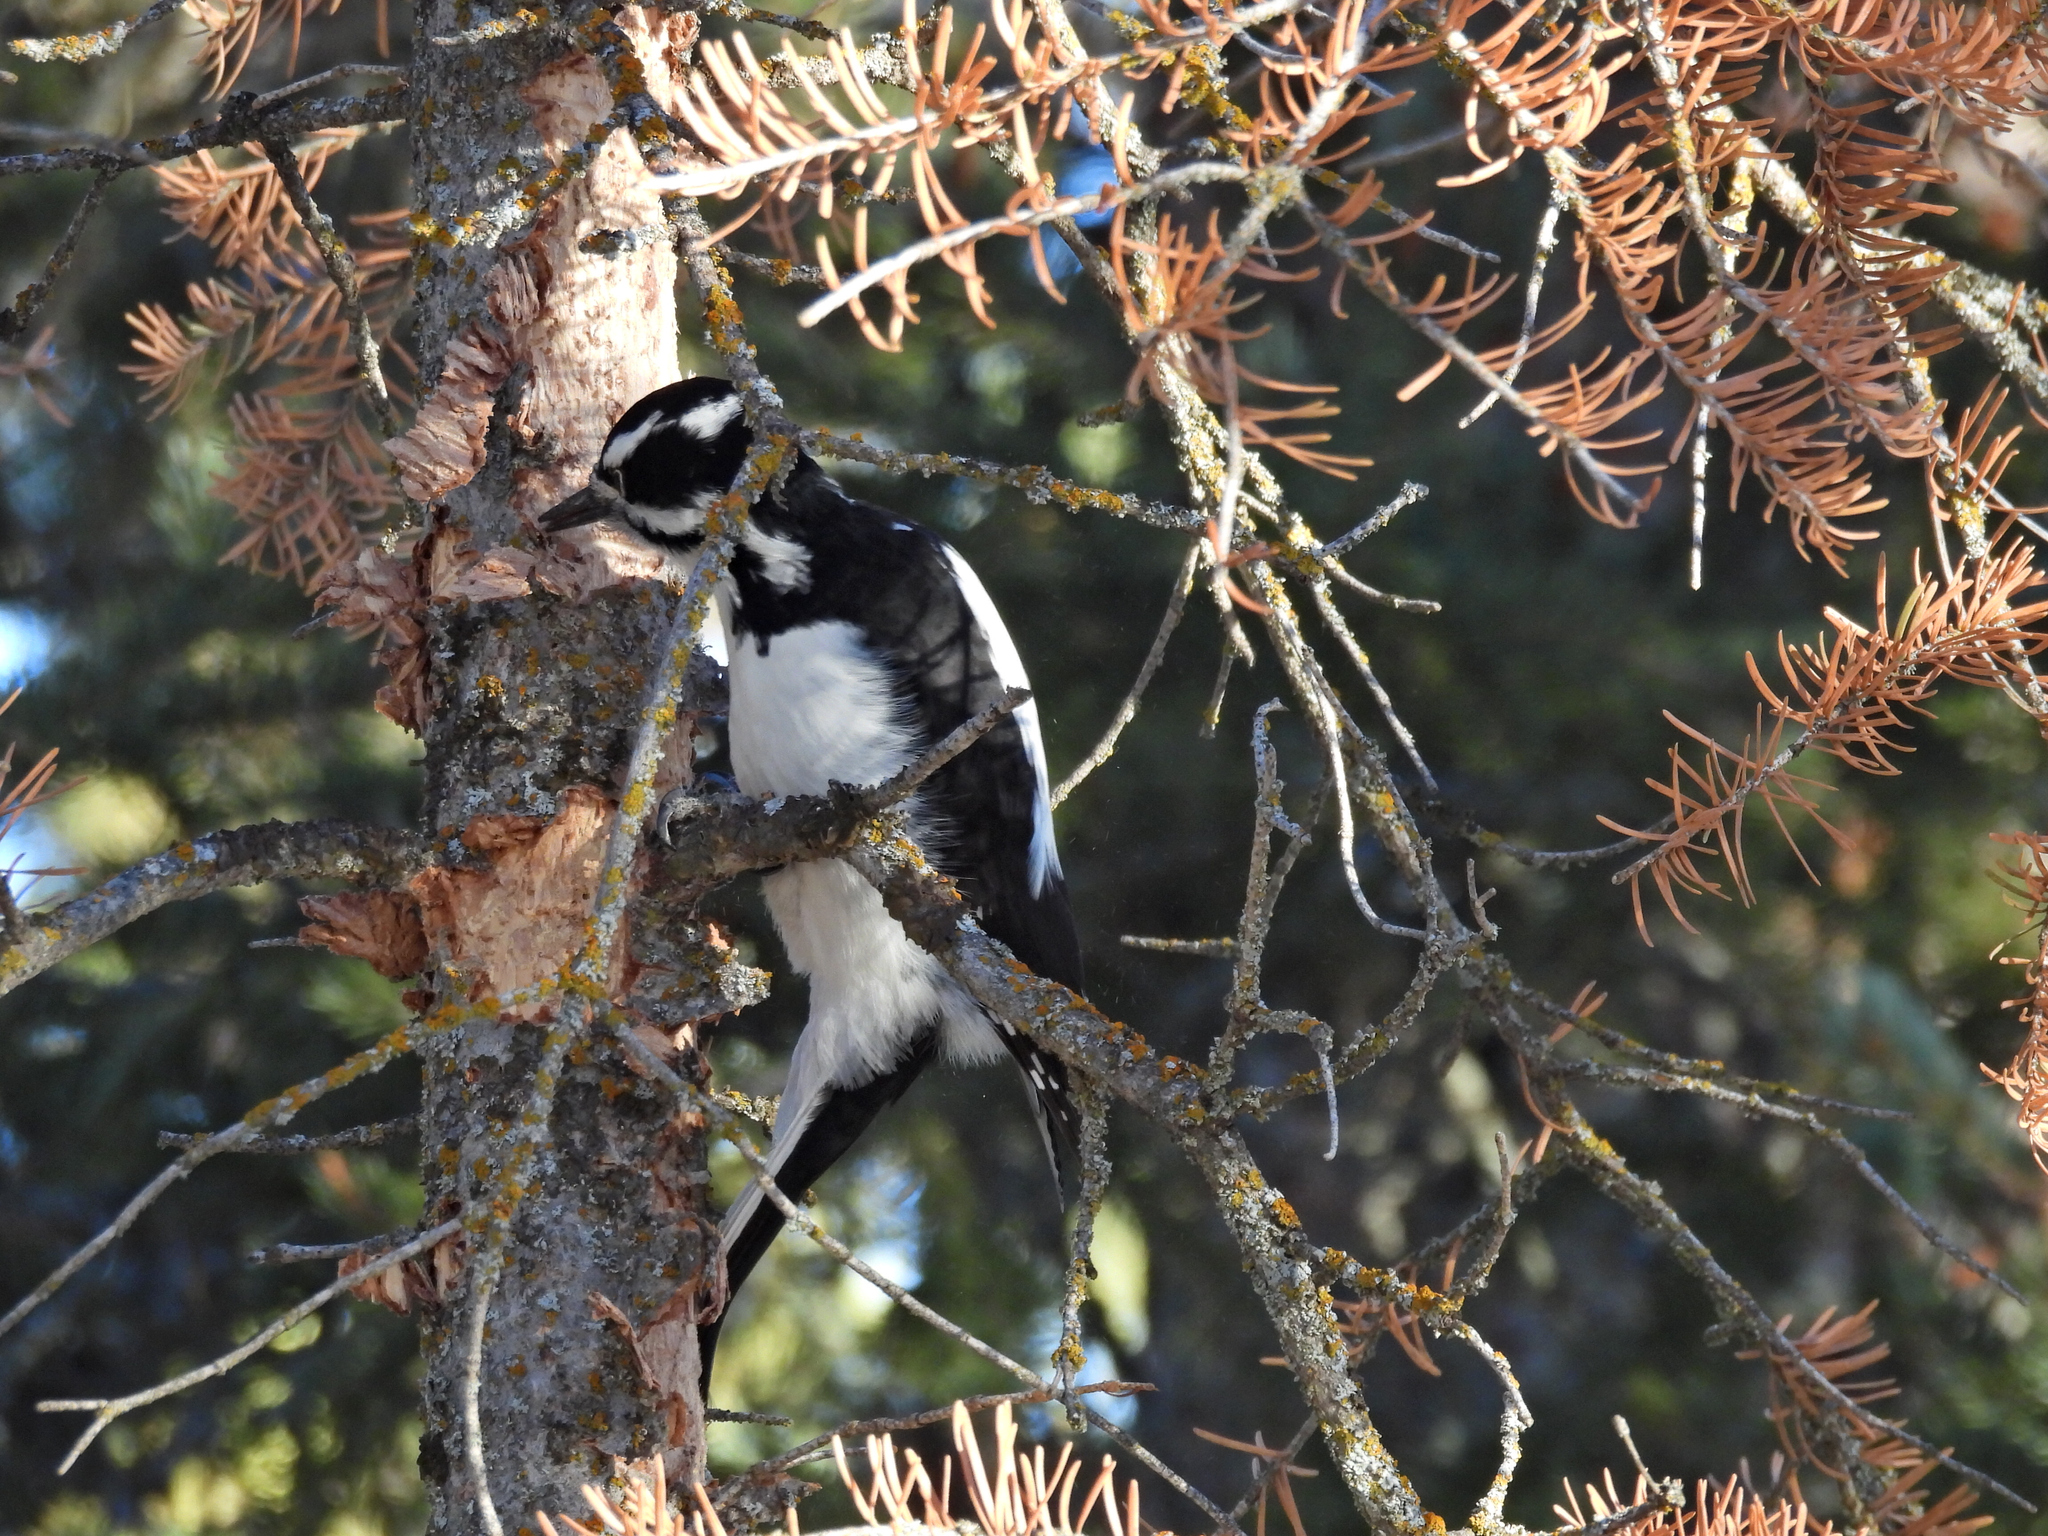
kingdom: Animalia
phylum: Chordata
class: Aves
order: Piciformes
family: Picidae
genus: Leuconotopicus
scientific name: Leuconotopicus villosus
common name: Hairy woodpecker
